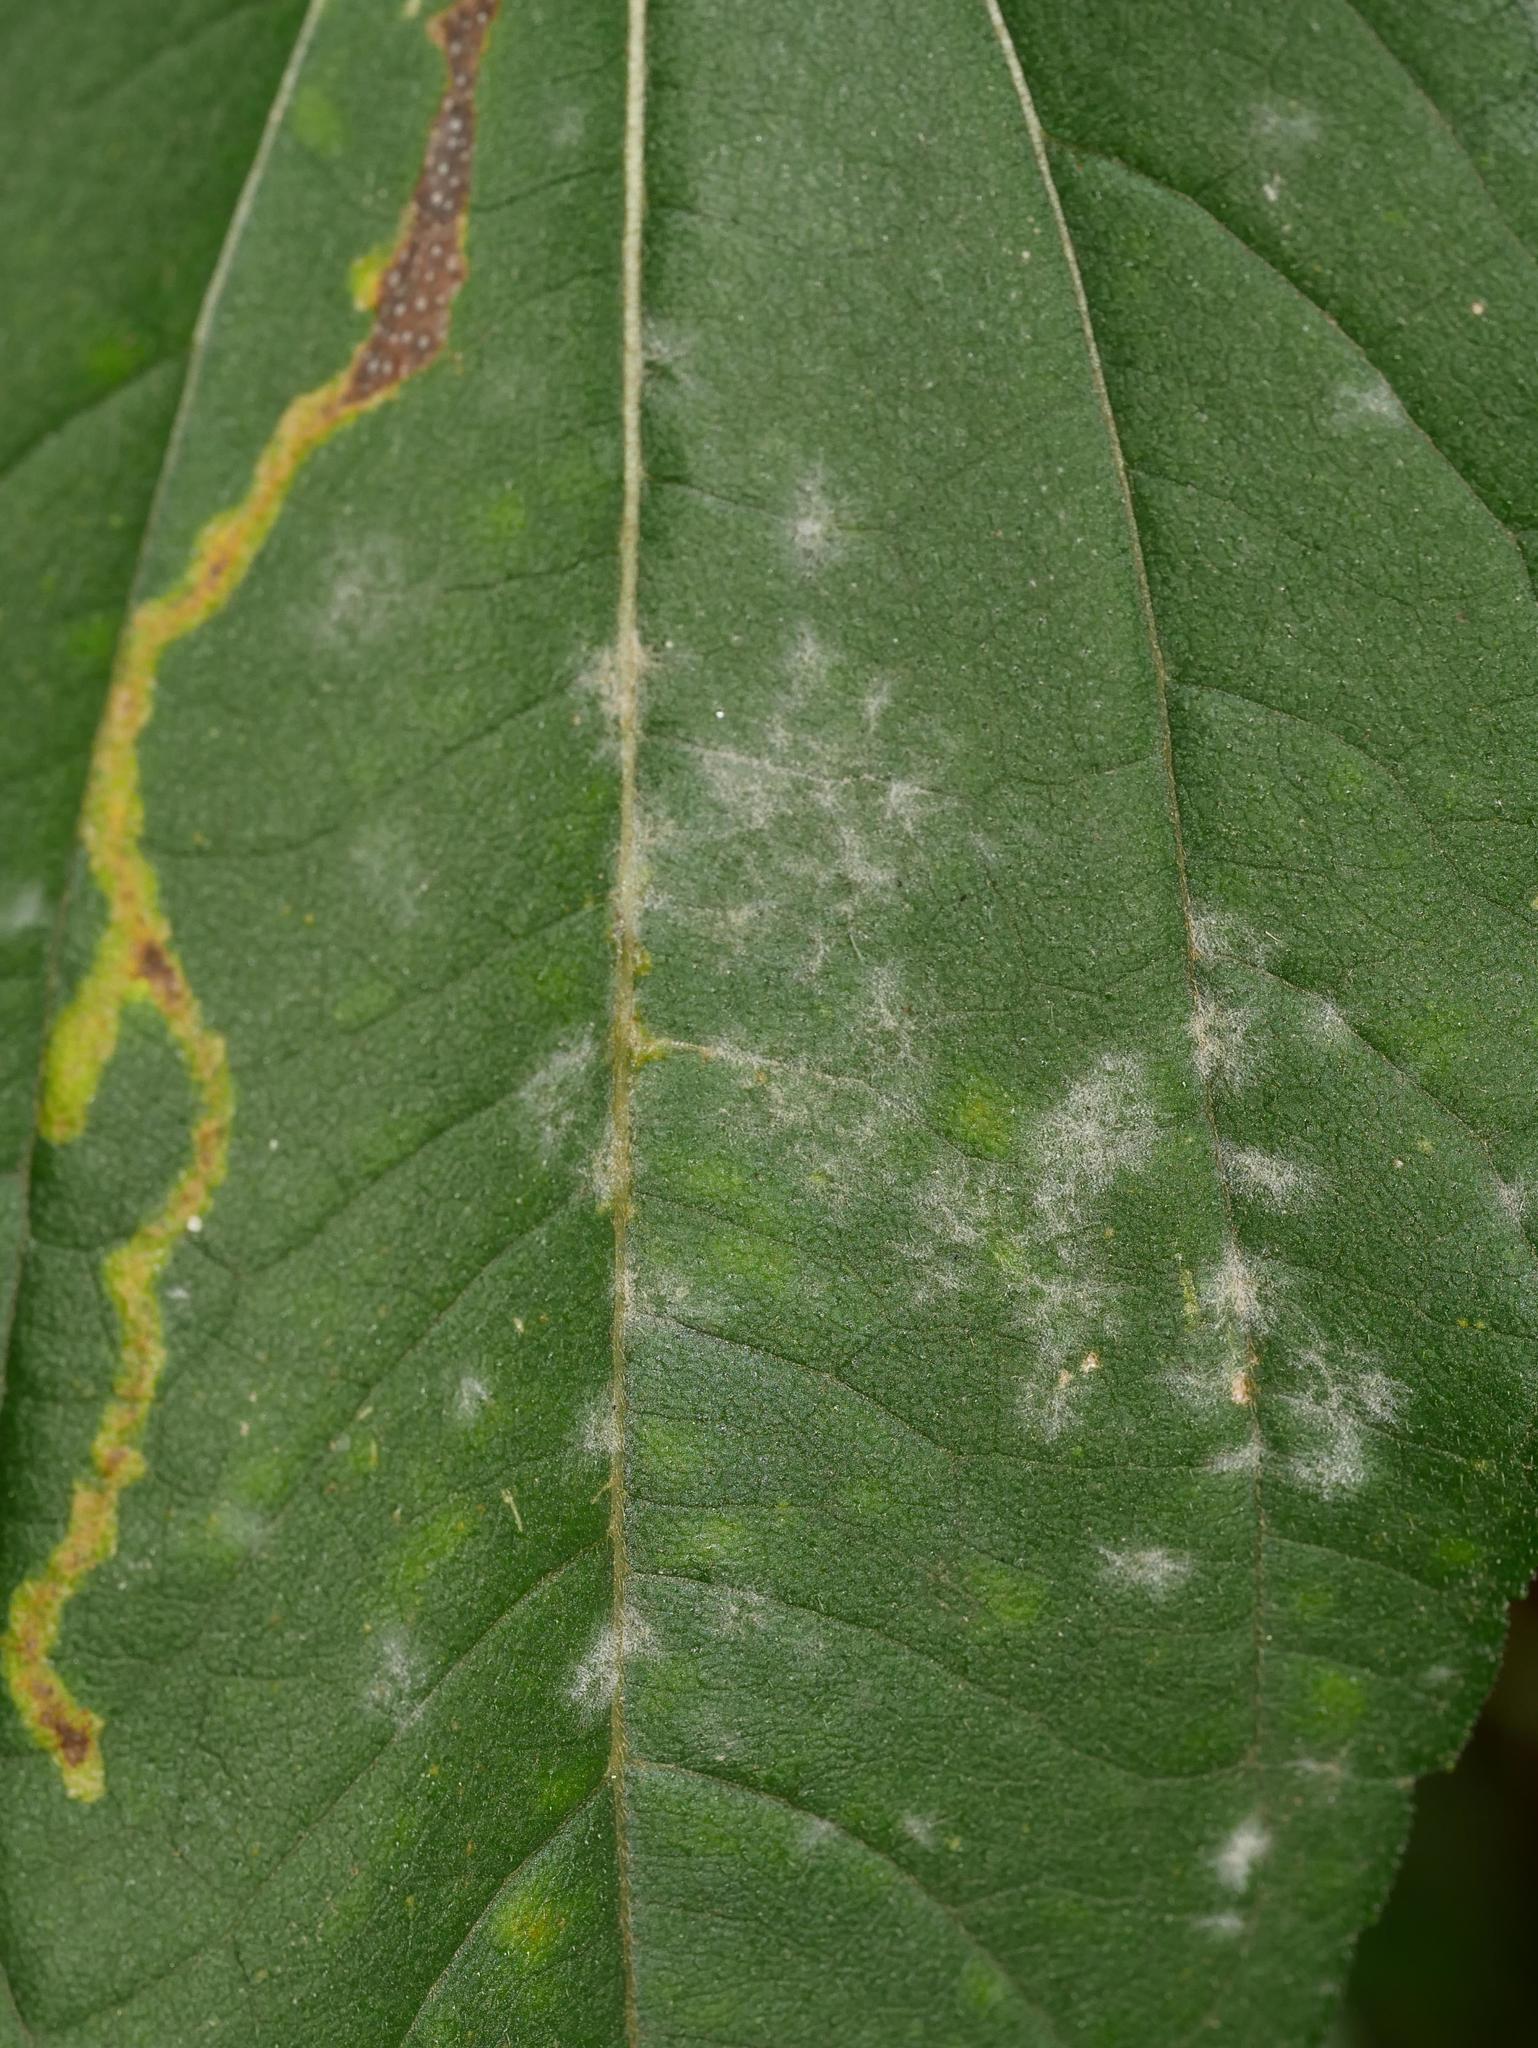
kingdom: Fungi
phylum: Ascomycota
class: Leotiomycetes
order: Helotiales
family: Erysiphaceae
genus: Golovinomyces
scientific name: Golovinomyces ambrosiae
